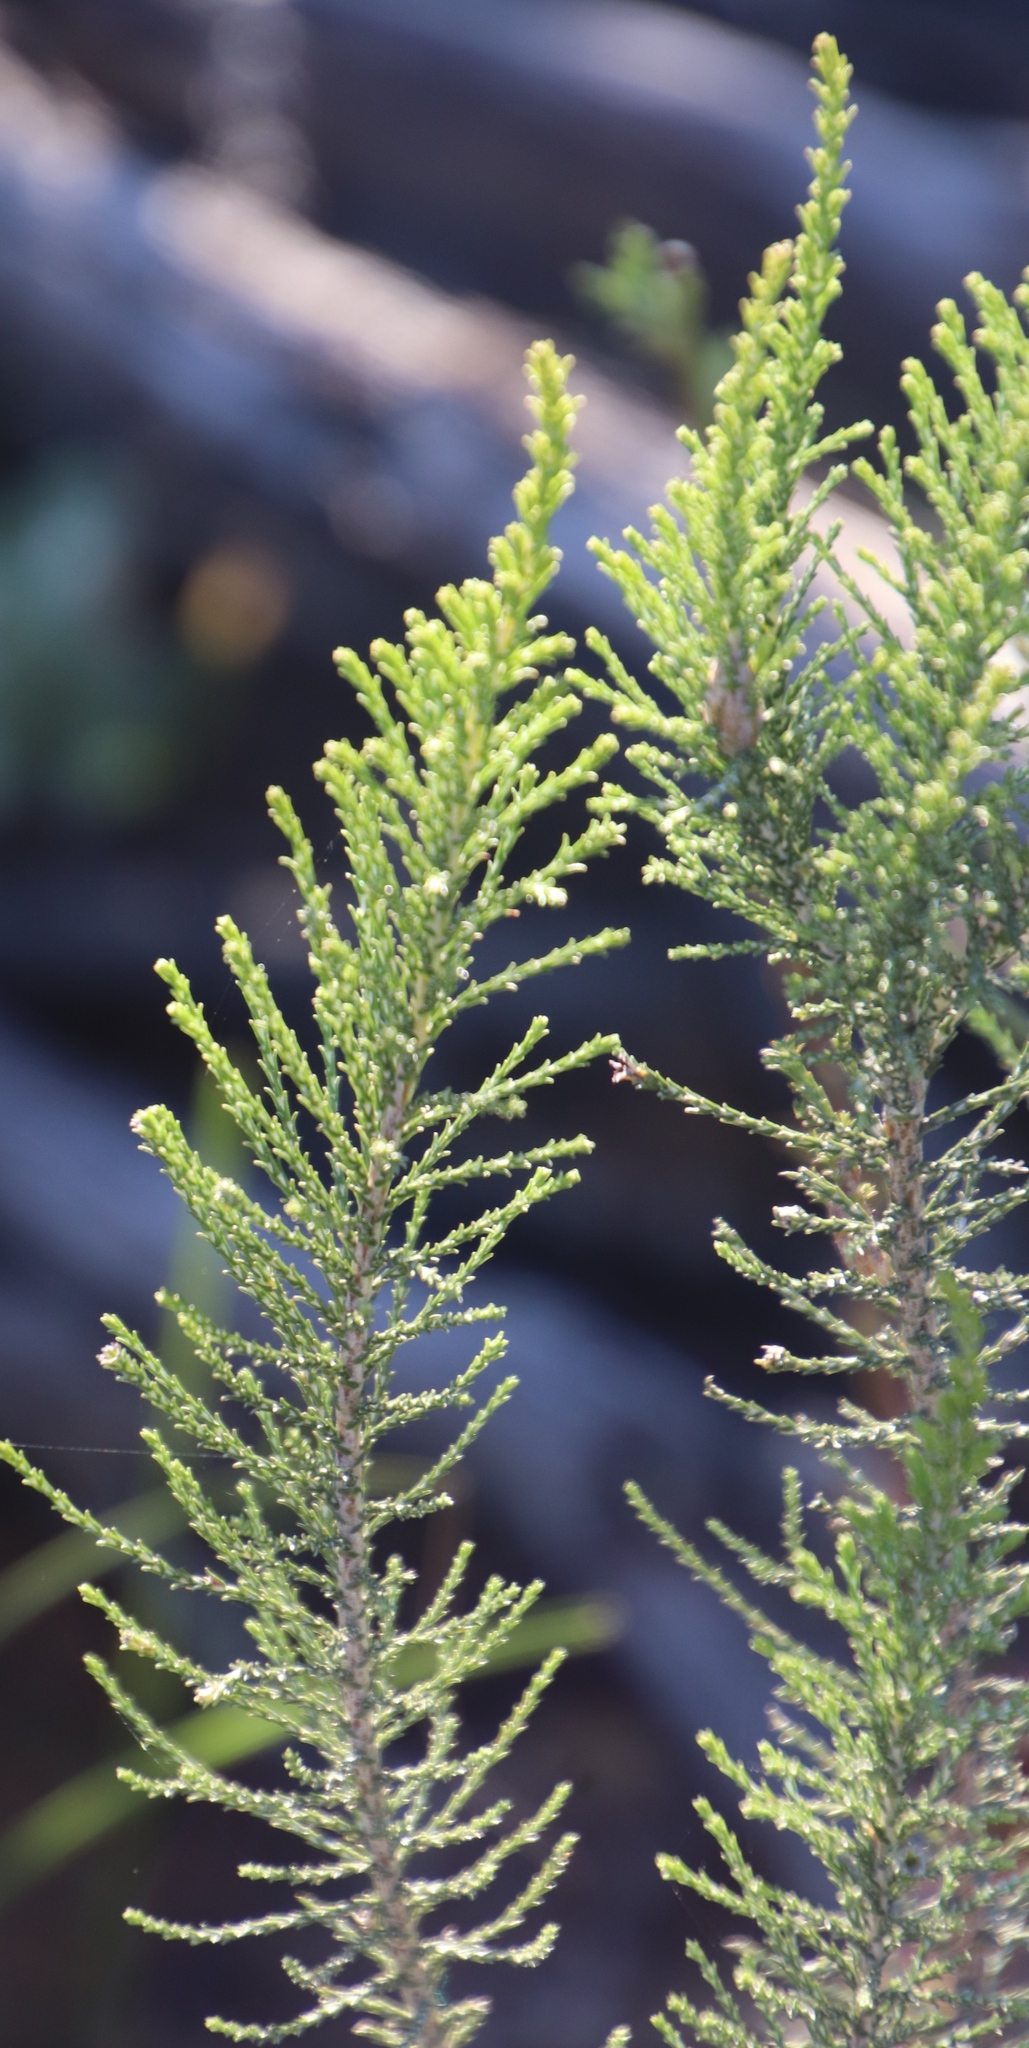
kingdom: Plantae
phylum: Tracheophyta
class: Magnoliopsida
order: Asterales
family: Asteraceae
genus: Dicerothamnus
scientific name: Dicerothamnus rhinocerotis
